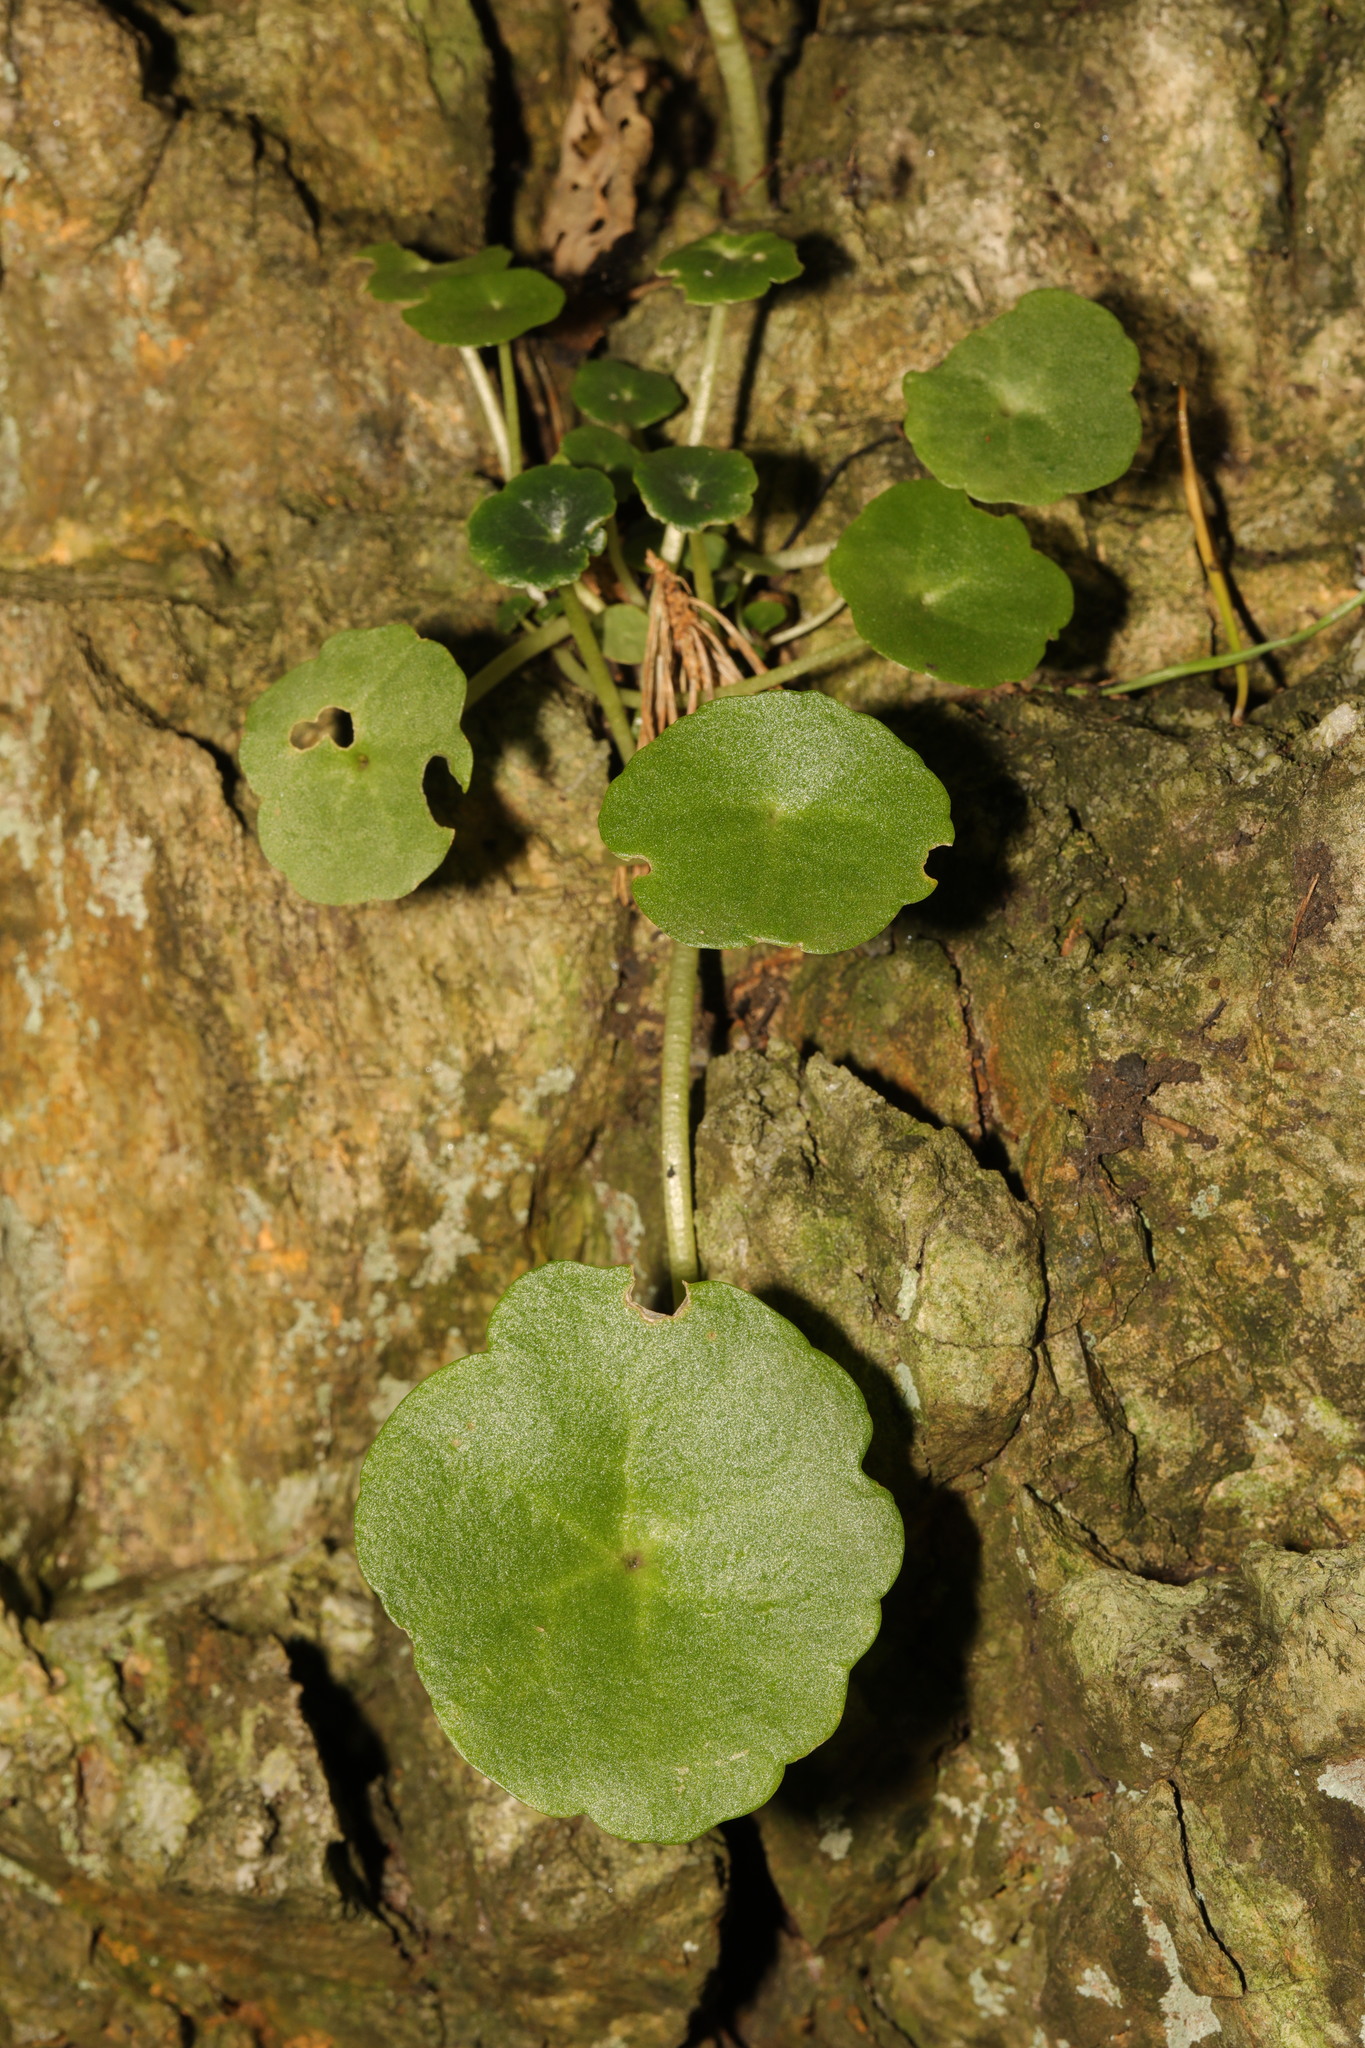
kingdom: Plantae
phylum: Tracheophyta
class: Magnoliopsida
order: Saxifragales
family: Crassulaceae
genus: Umbilicus
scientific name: Umbilicus rupestris
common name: Navelwort
